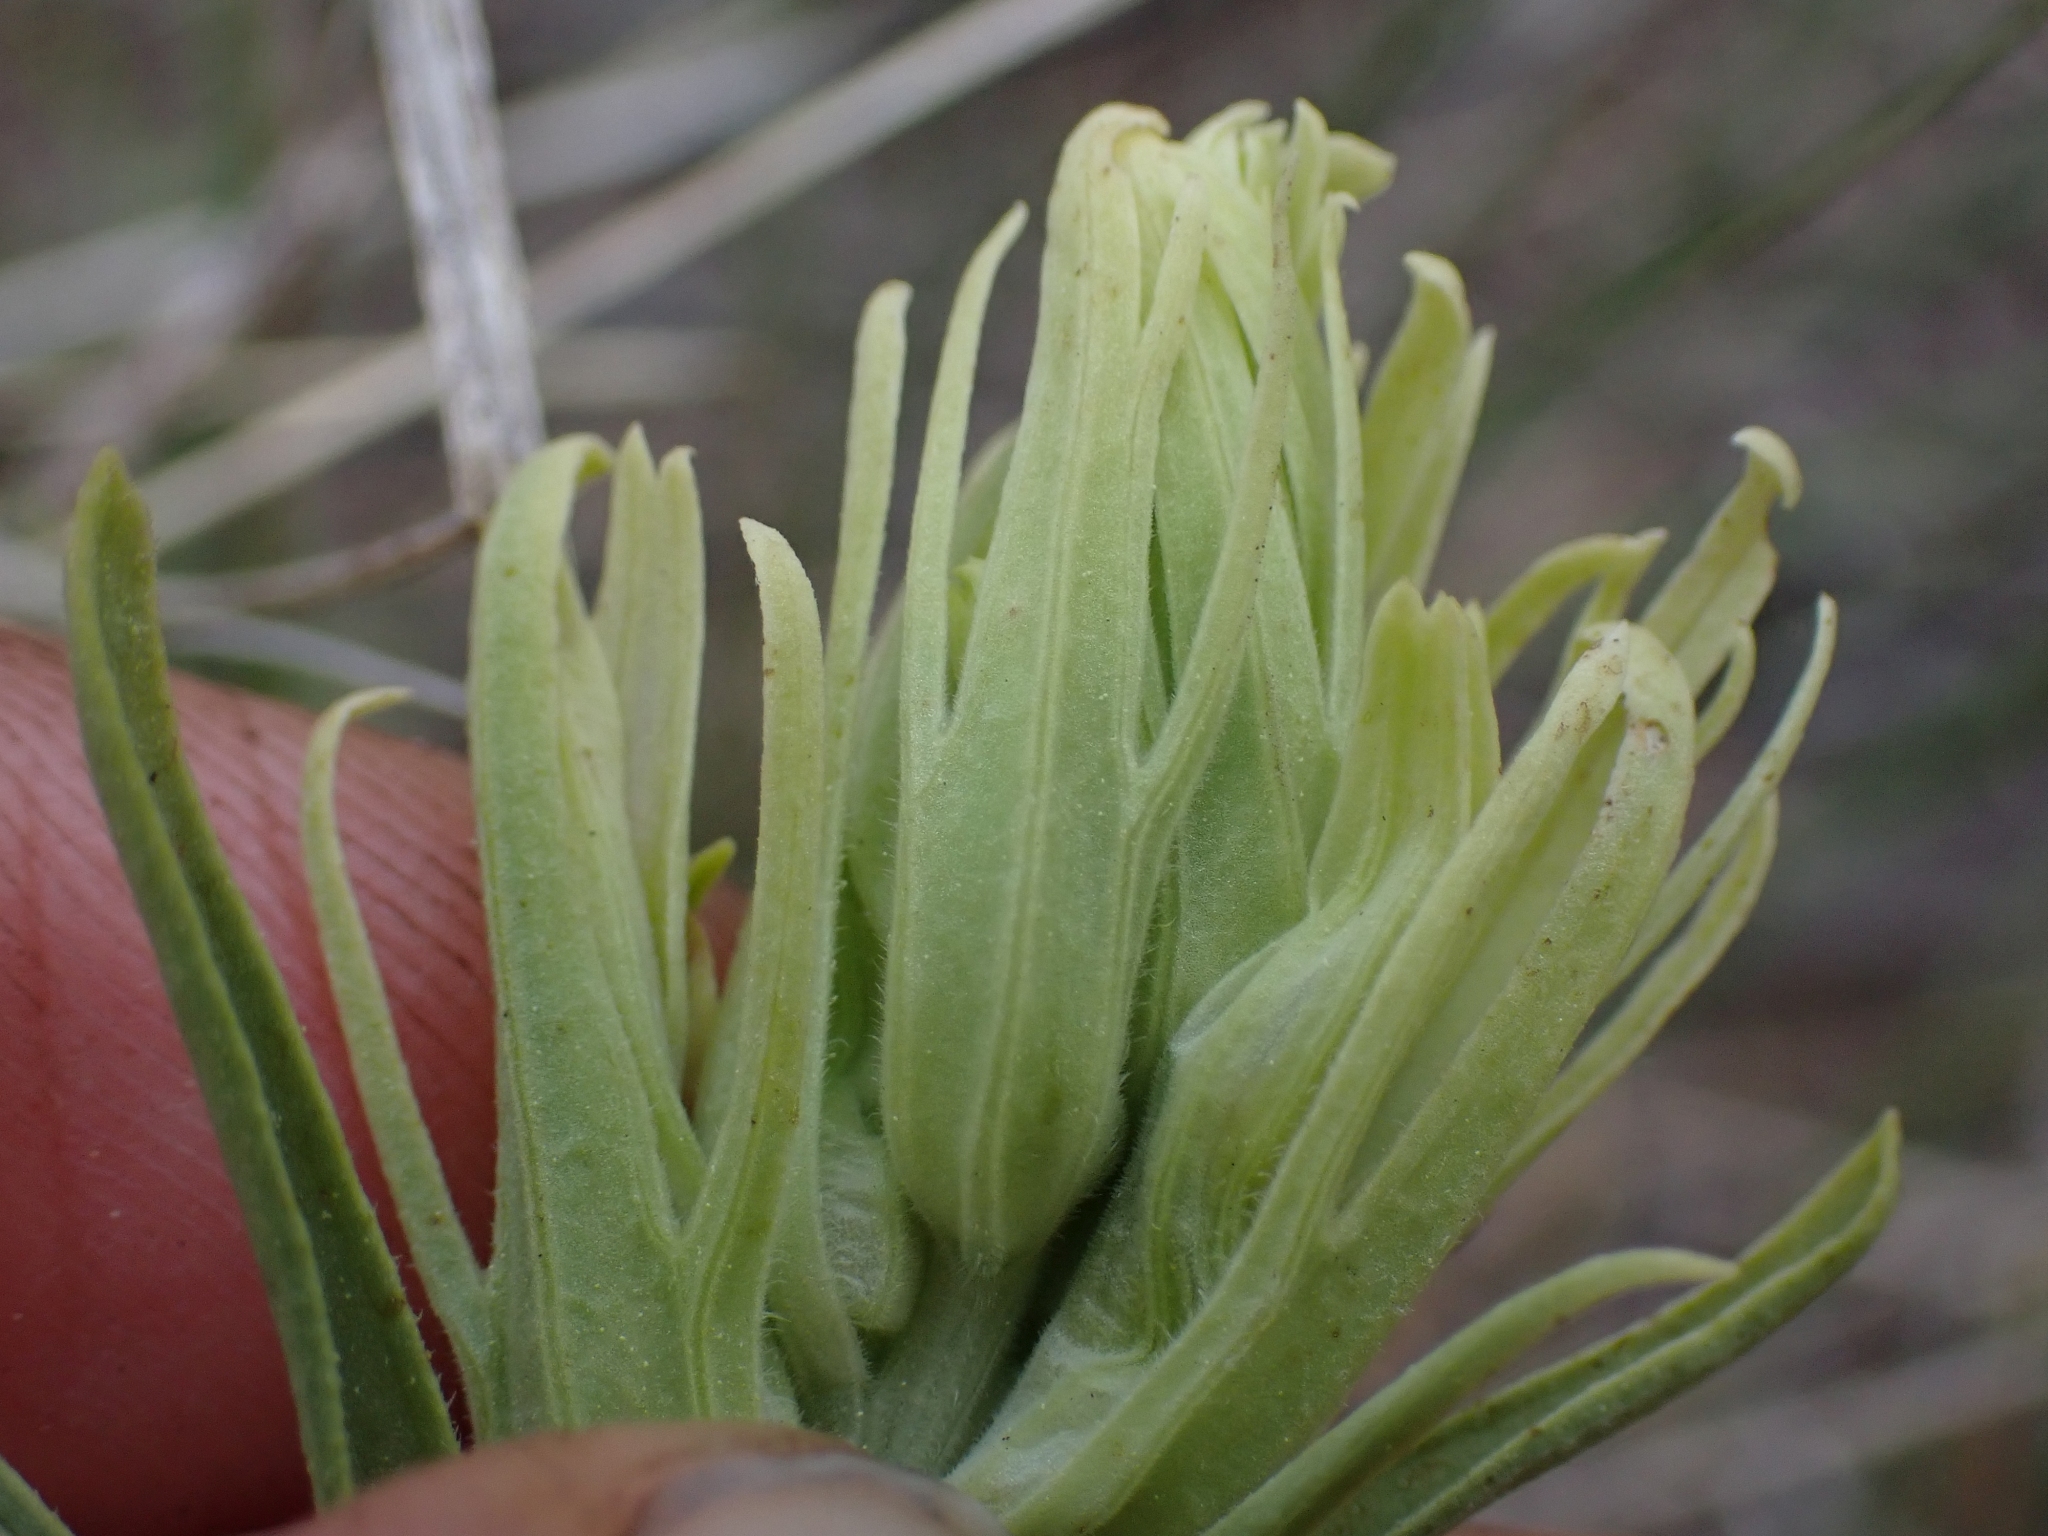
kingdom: Plantae
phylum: Tracheophyta
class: Magnoliopsida
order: Lamiales
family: Orobanchaceae
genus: Castilleja
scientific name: Castilleja thompsonii
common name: Thompson's paintbrush
